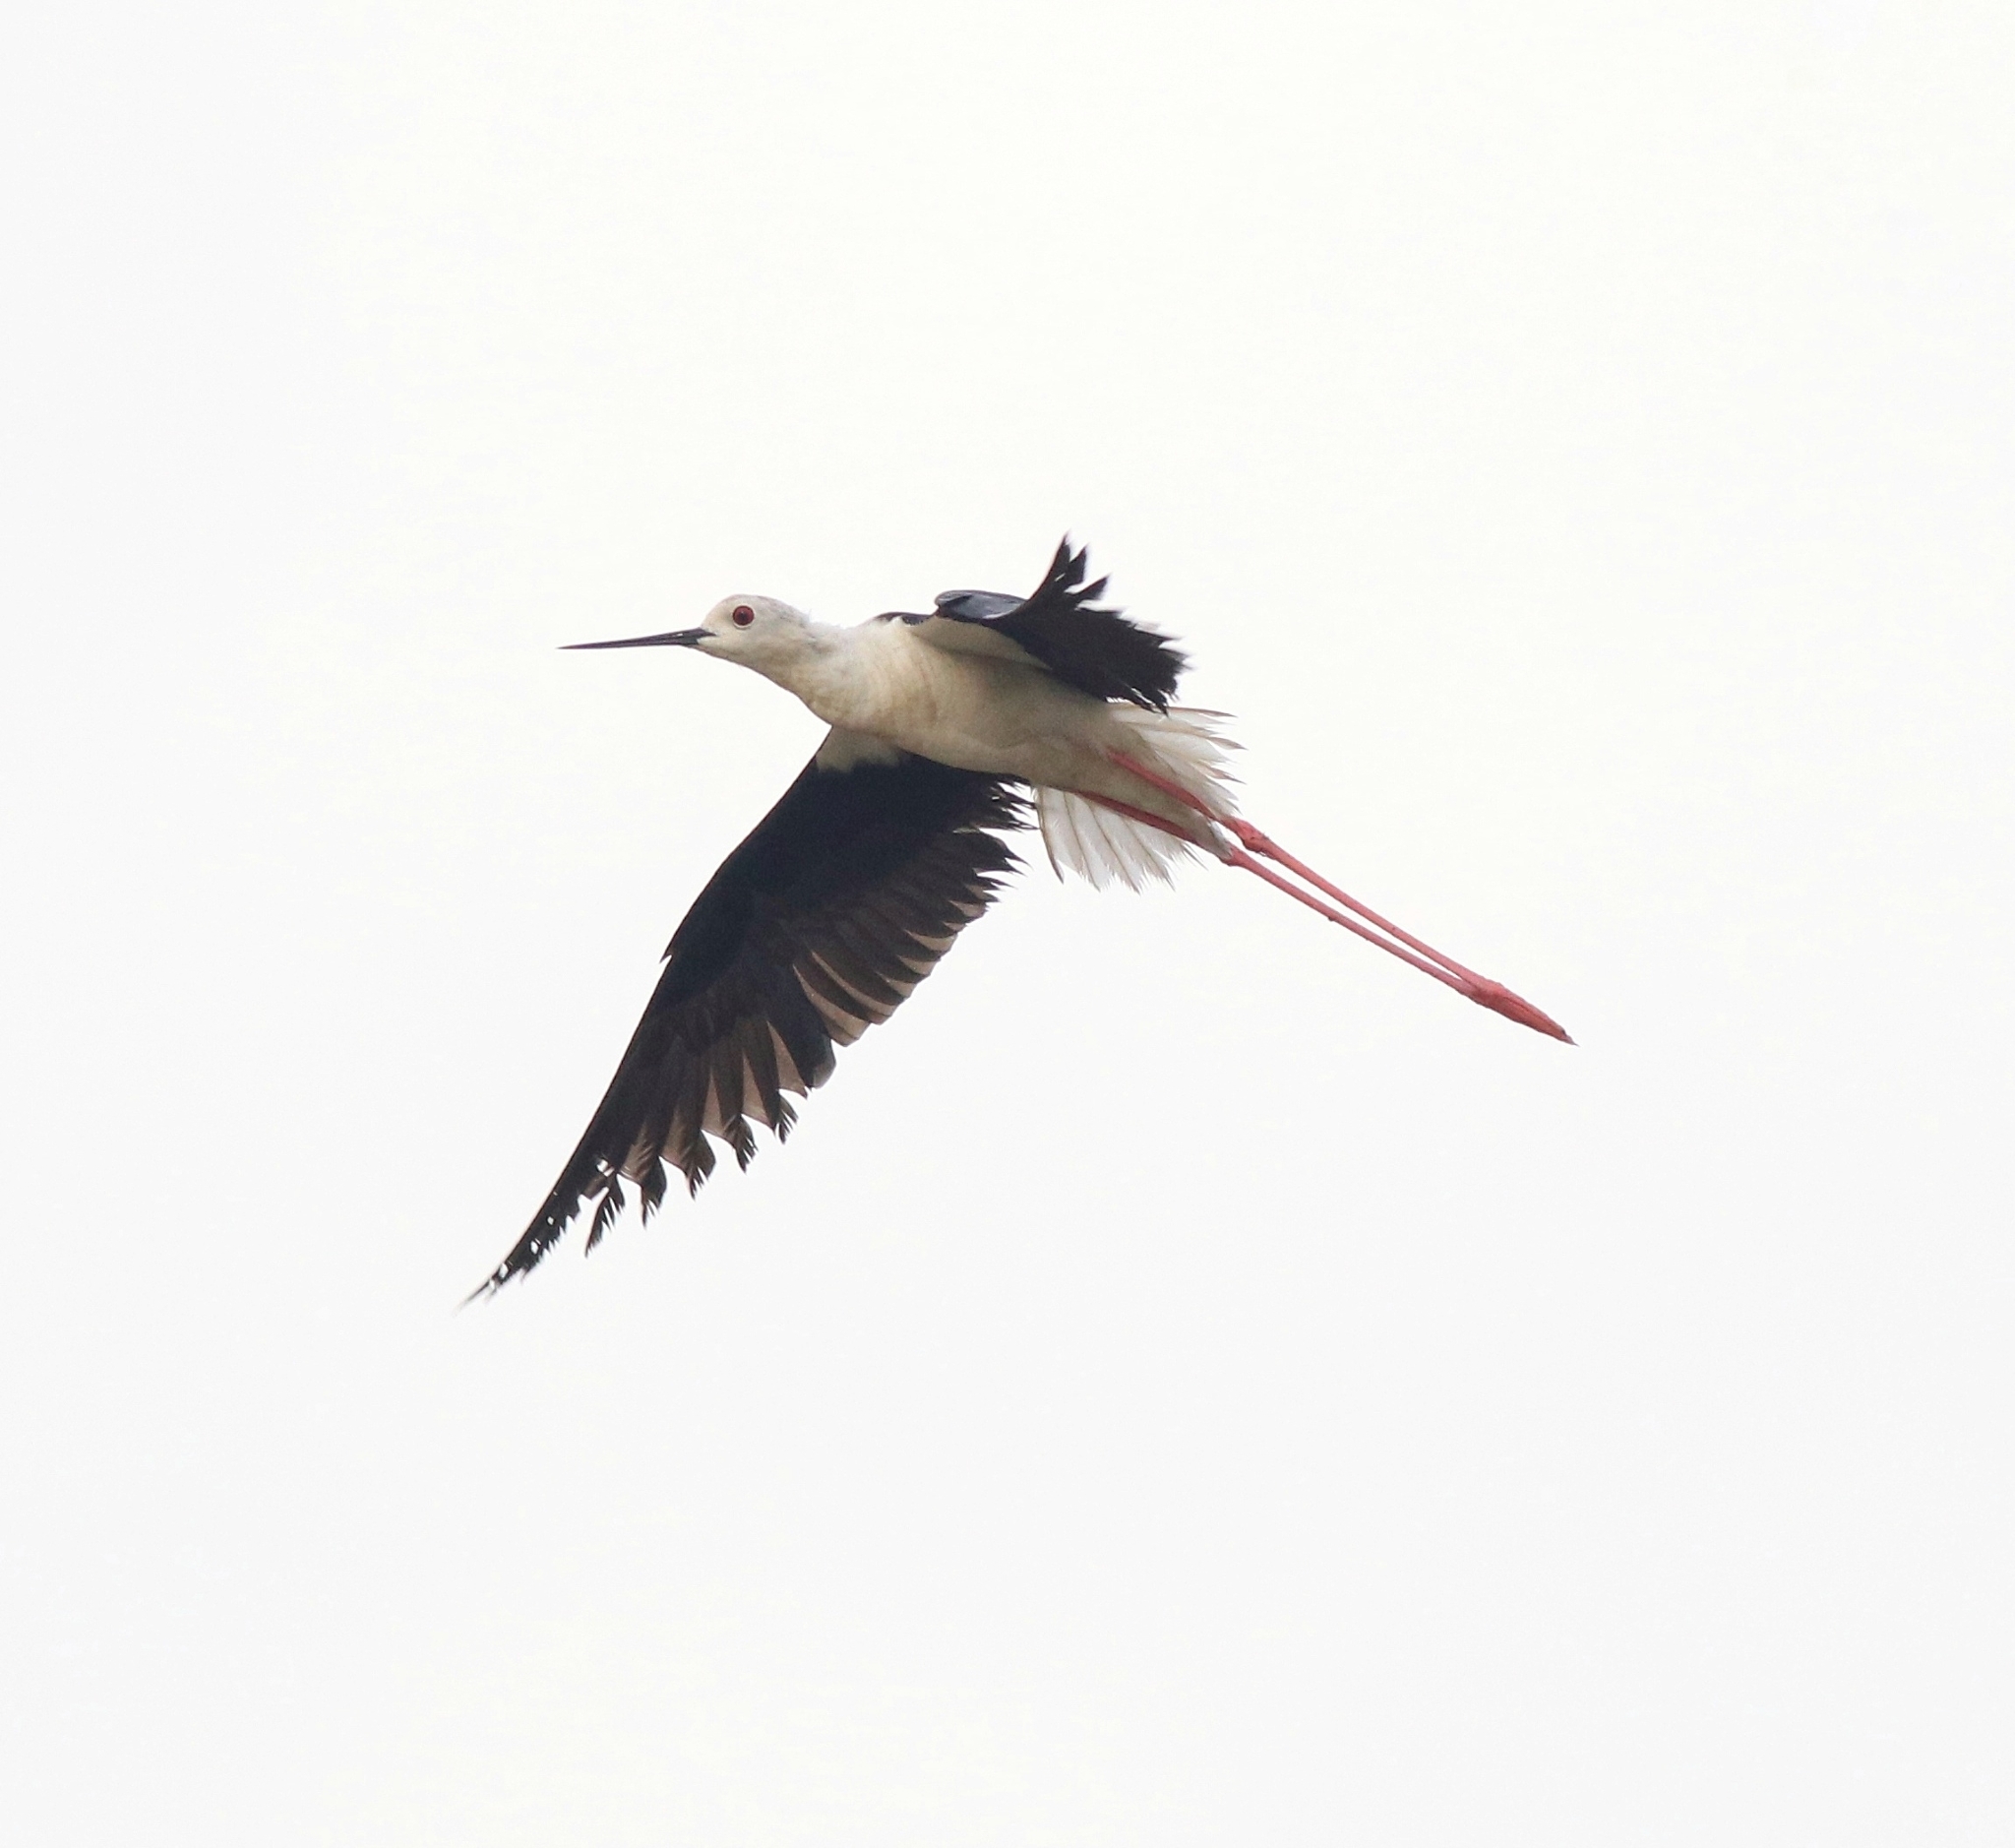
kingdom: Animalia
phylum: Chordata
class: Aves
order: Charadriiformes
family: Recurvirostridae
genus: Himantopus
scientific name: Himantopus himantopus
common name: Black-winged stilt
